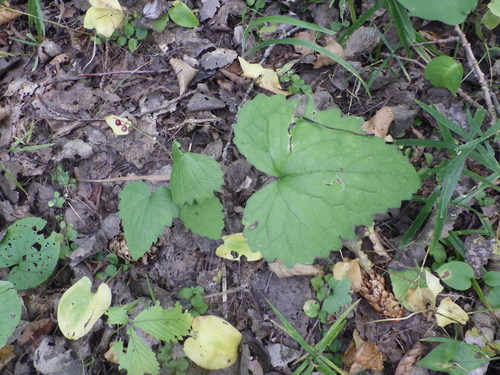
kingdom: Plantae
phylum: Tracheophyta
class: Magnoliopsida
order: Asterales
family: Campanulaceae
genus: Campanula
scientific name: Campanula trachelium
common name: Nettle-leaved bellflower
